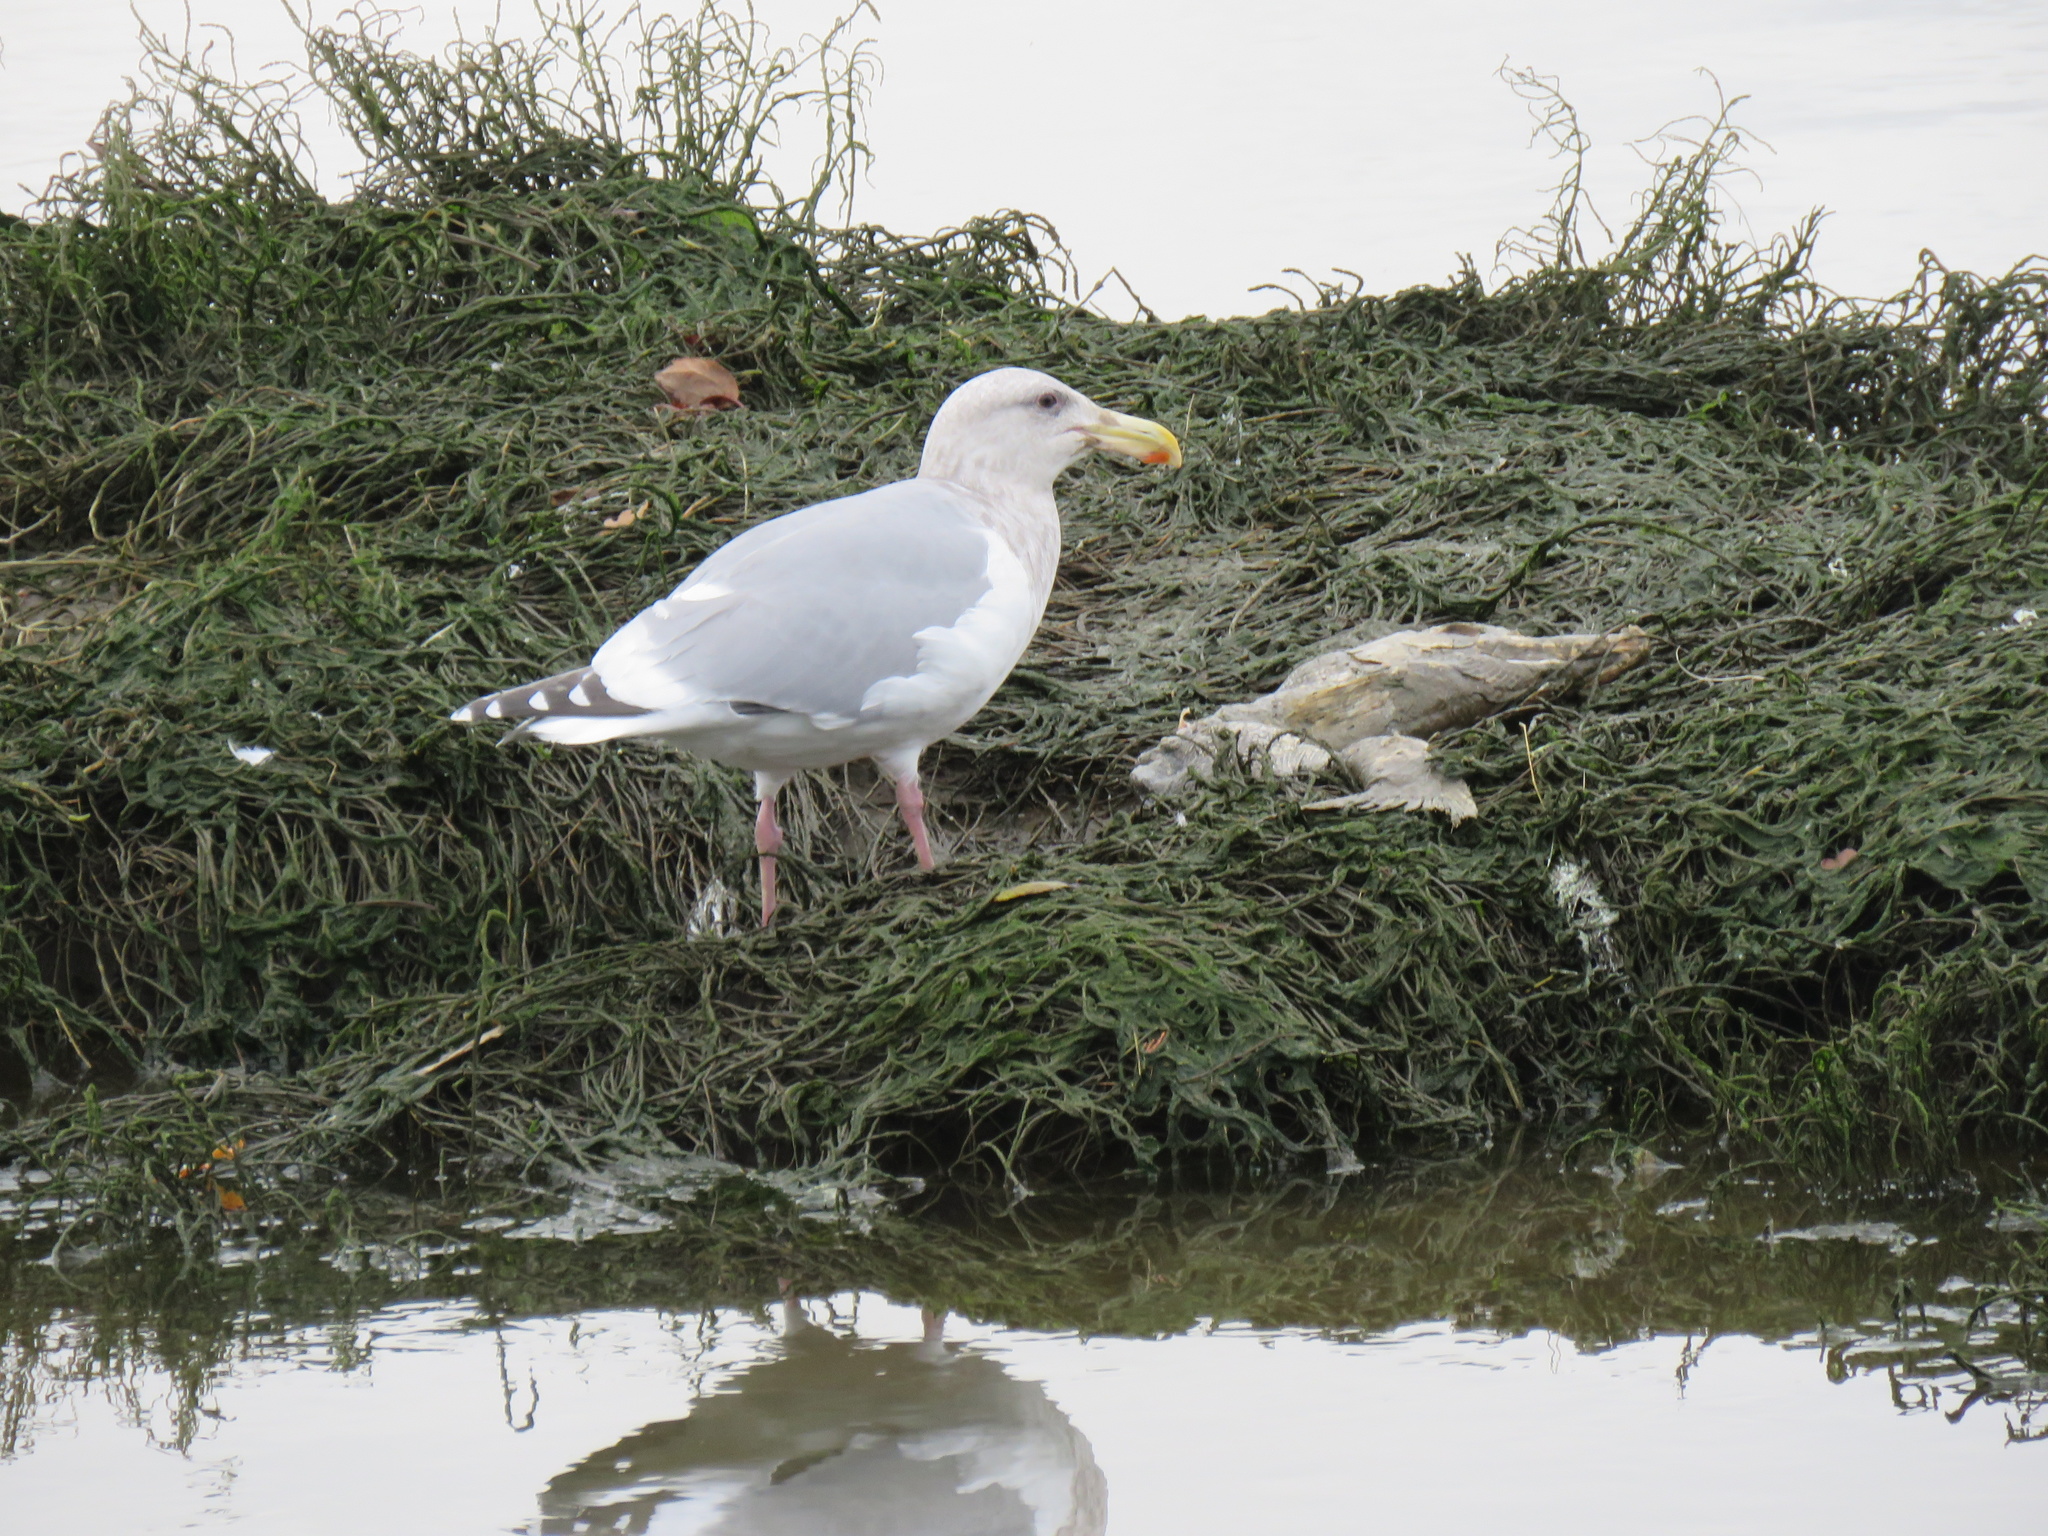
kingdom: Animalia
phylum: Chordata
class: Aves
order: Charadriiformes
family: Laridae
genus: Larus
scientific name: Larus
